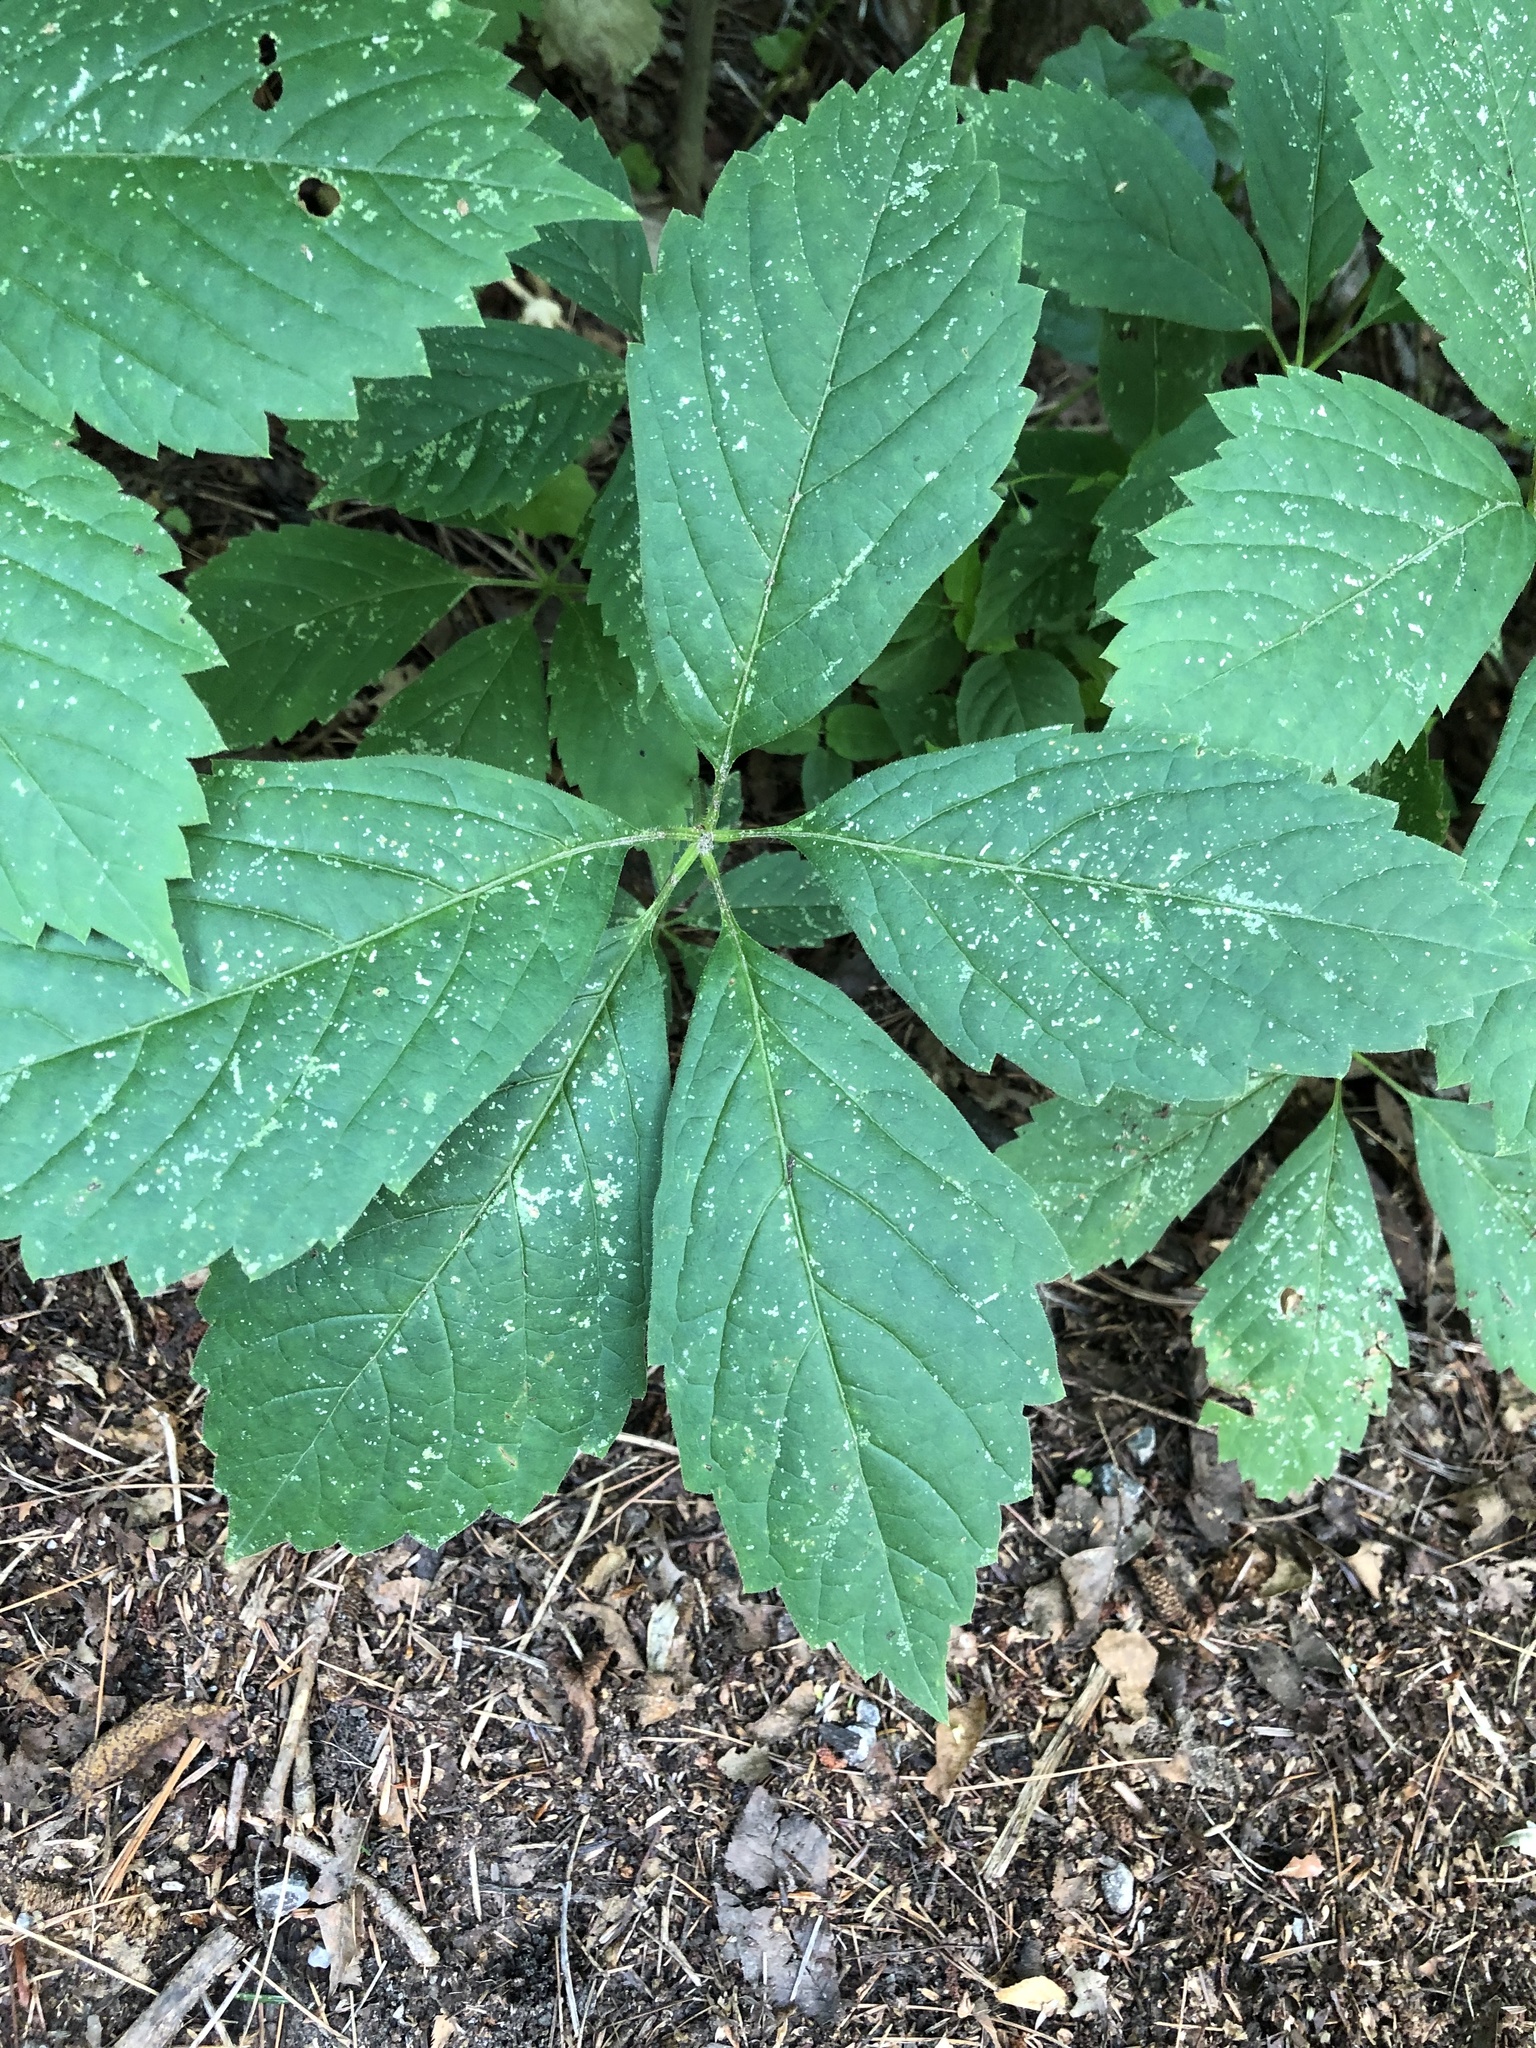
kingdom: Plantae
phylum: Tracheophyta
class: Magnoliopsida
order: Vitales
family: Vitaceae
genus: Parthenocissus
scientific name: Parthenocissus quinquefolia
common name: Virginia-creeper
